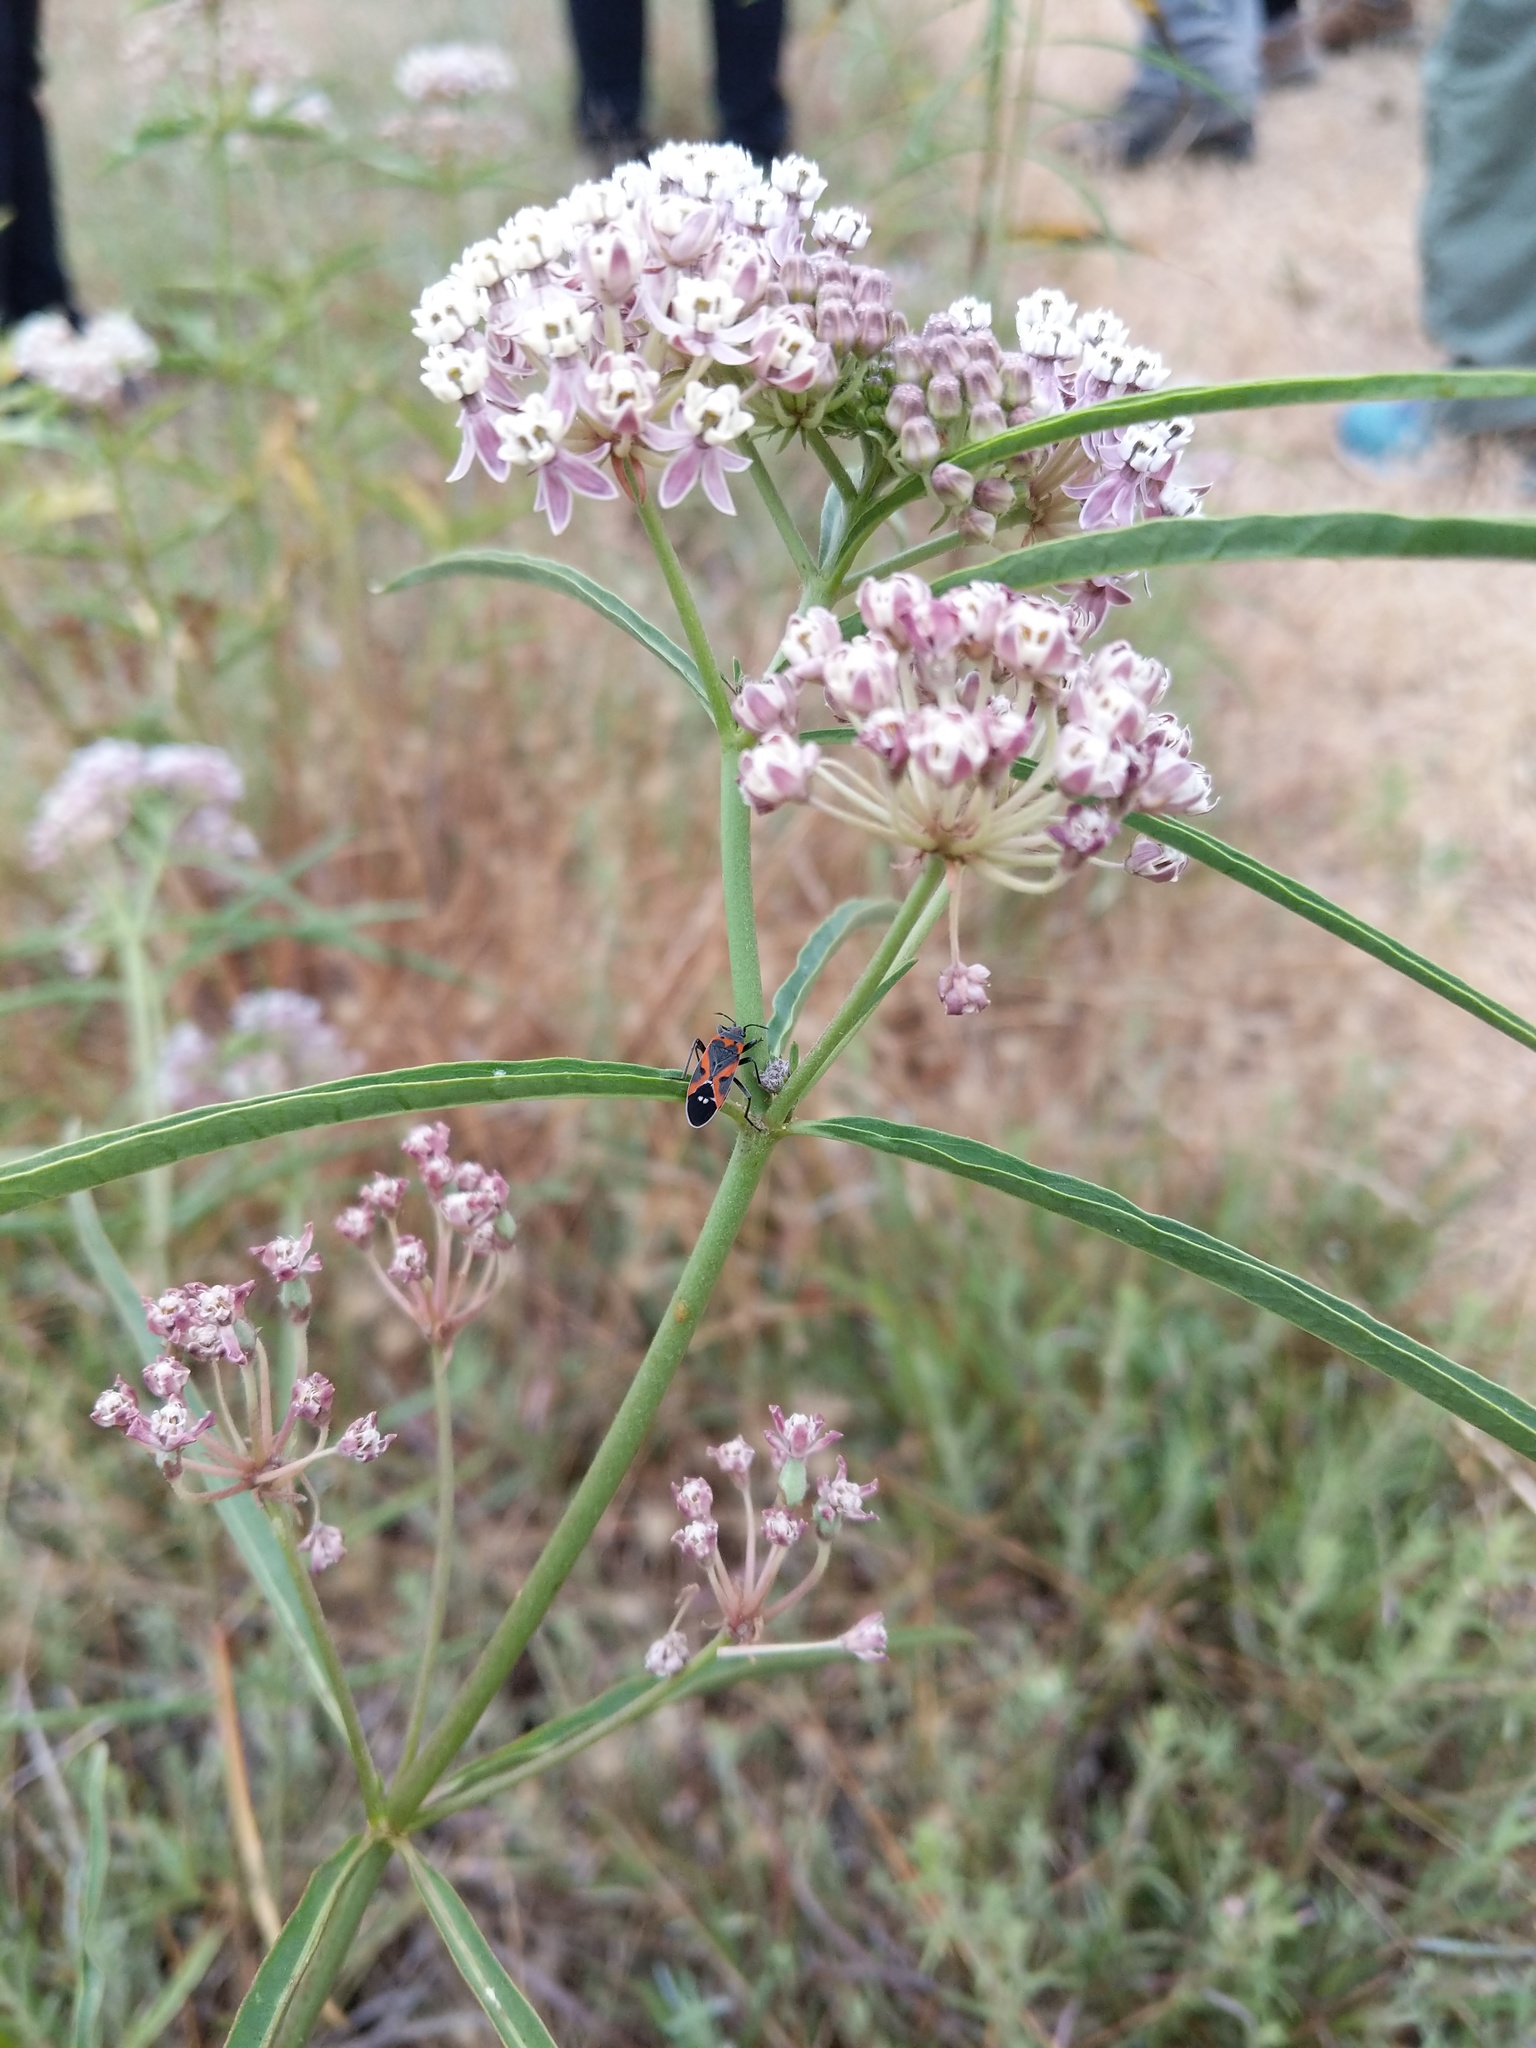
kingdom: Animalia
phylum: Arthropoda
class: Insecta
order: Hemiptera
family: Lygaeidae
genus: Lygaeus
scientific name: Lygaeus kalmii
